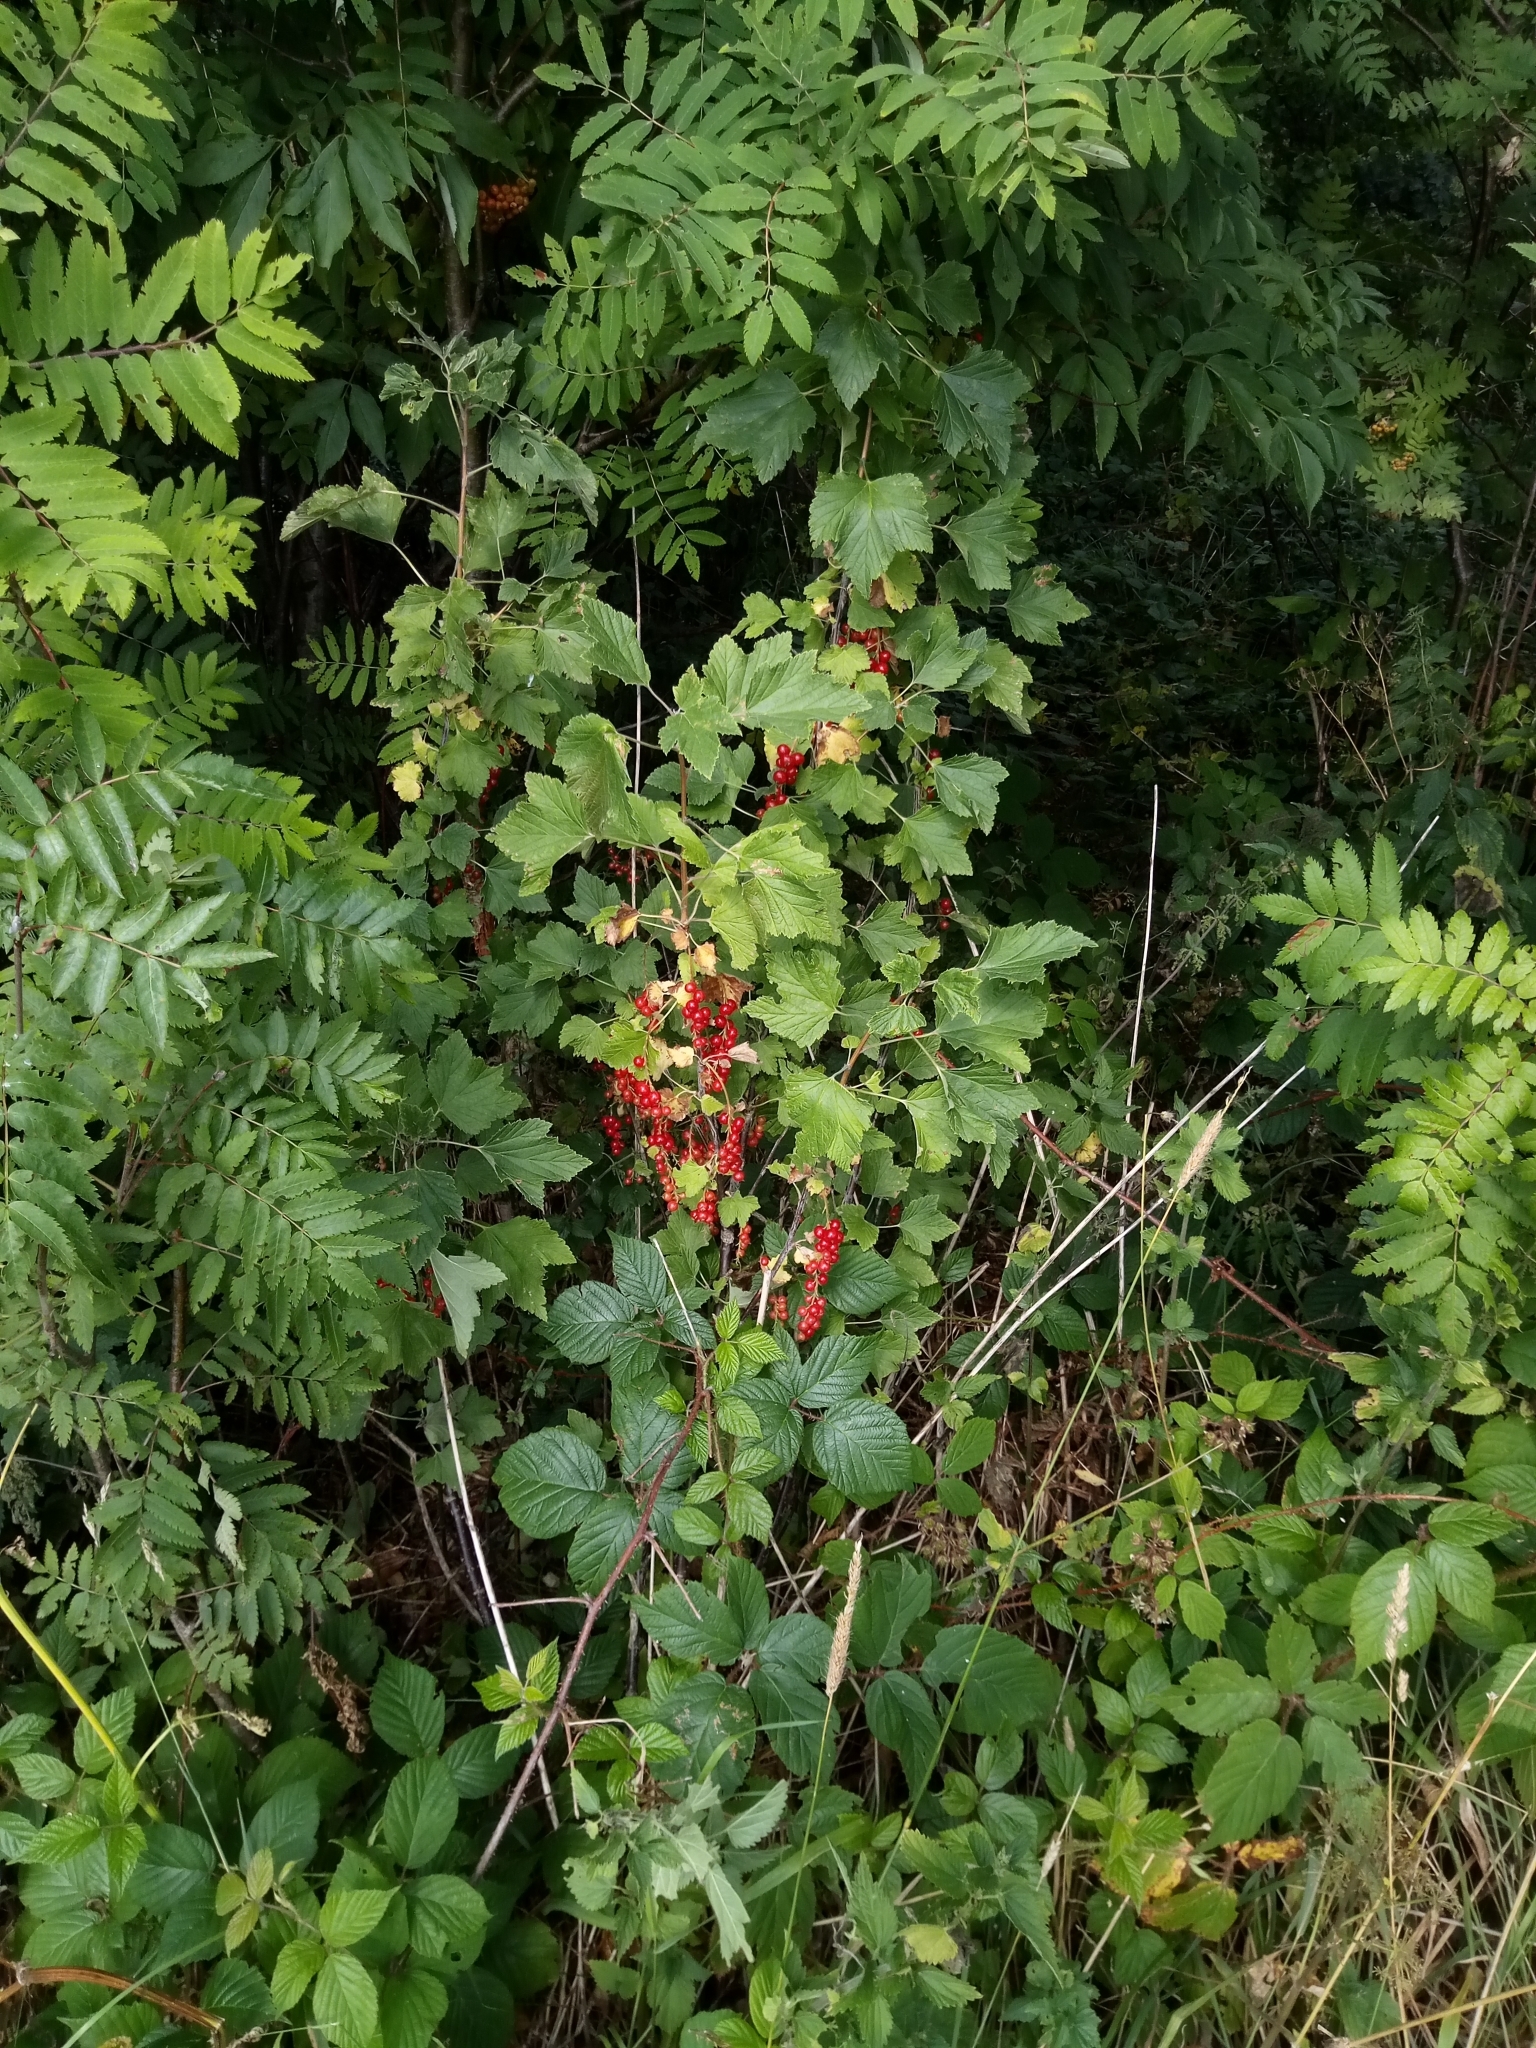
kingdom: Plantae
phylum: Tracheophyta
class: Magnoliopsida
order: Saxifragales
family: Grossulariaceae
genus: Ribes
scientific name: Ribes rubrum
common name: Red currant
